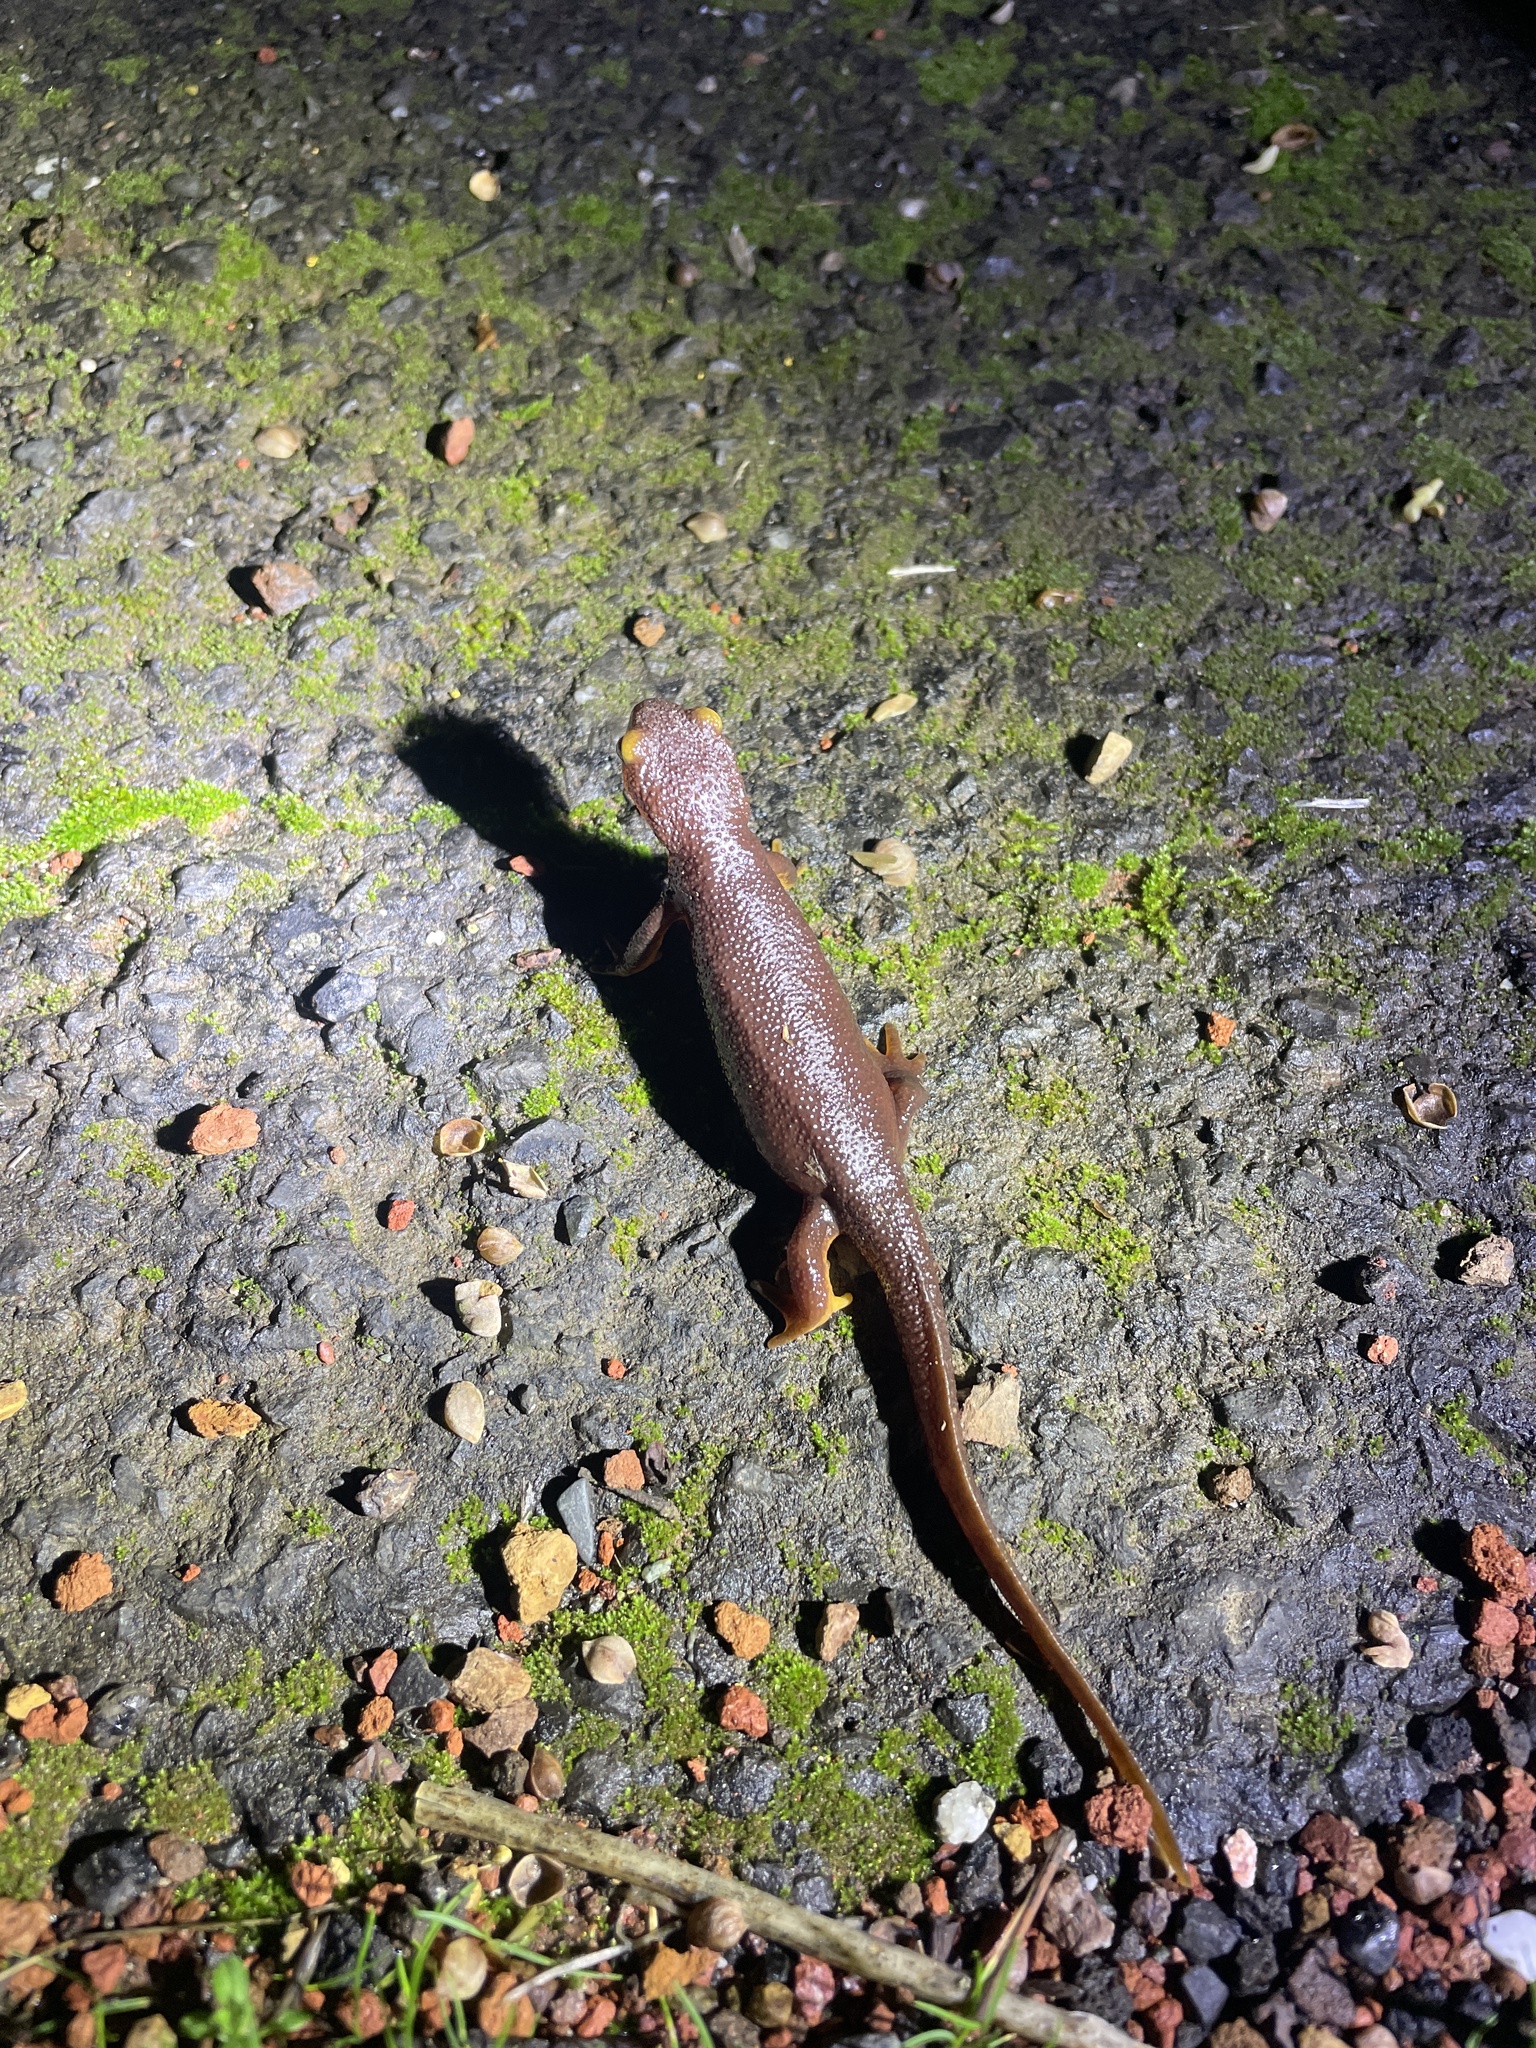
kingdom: Animalia
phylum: Chordata
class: Amphibia
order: Caudata
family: Salamandridae
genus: Taricha
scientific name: Taricha torosa
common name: California newt
